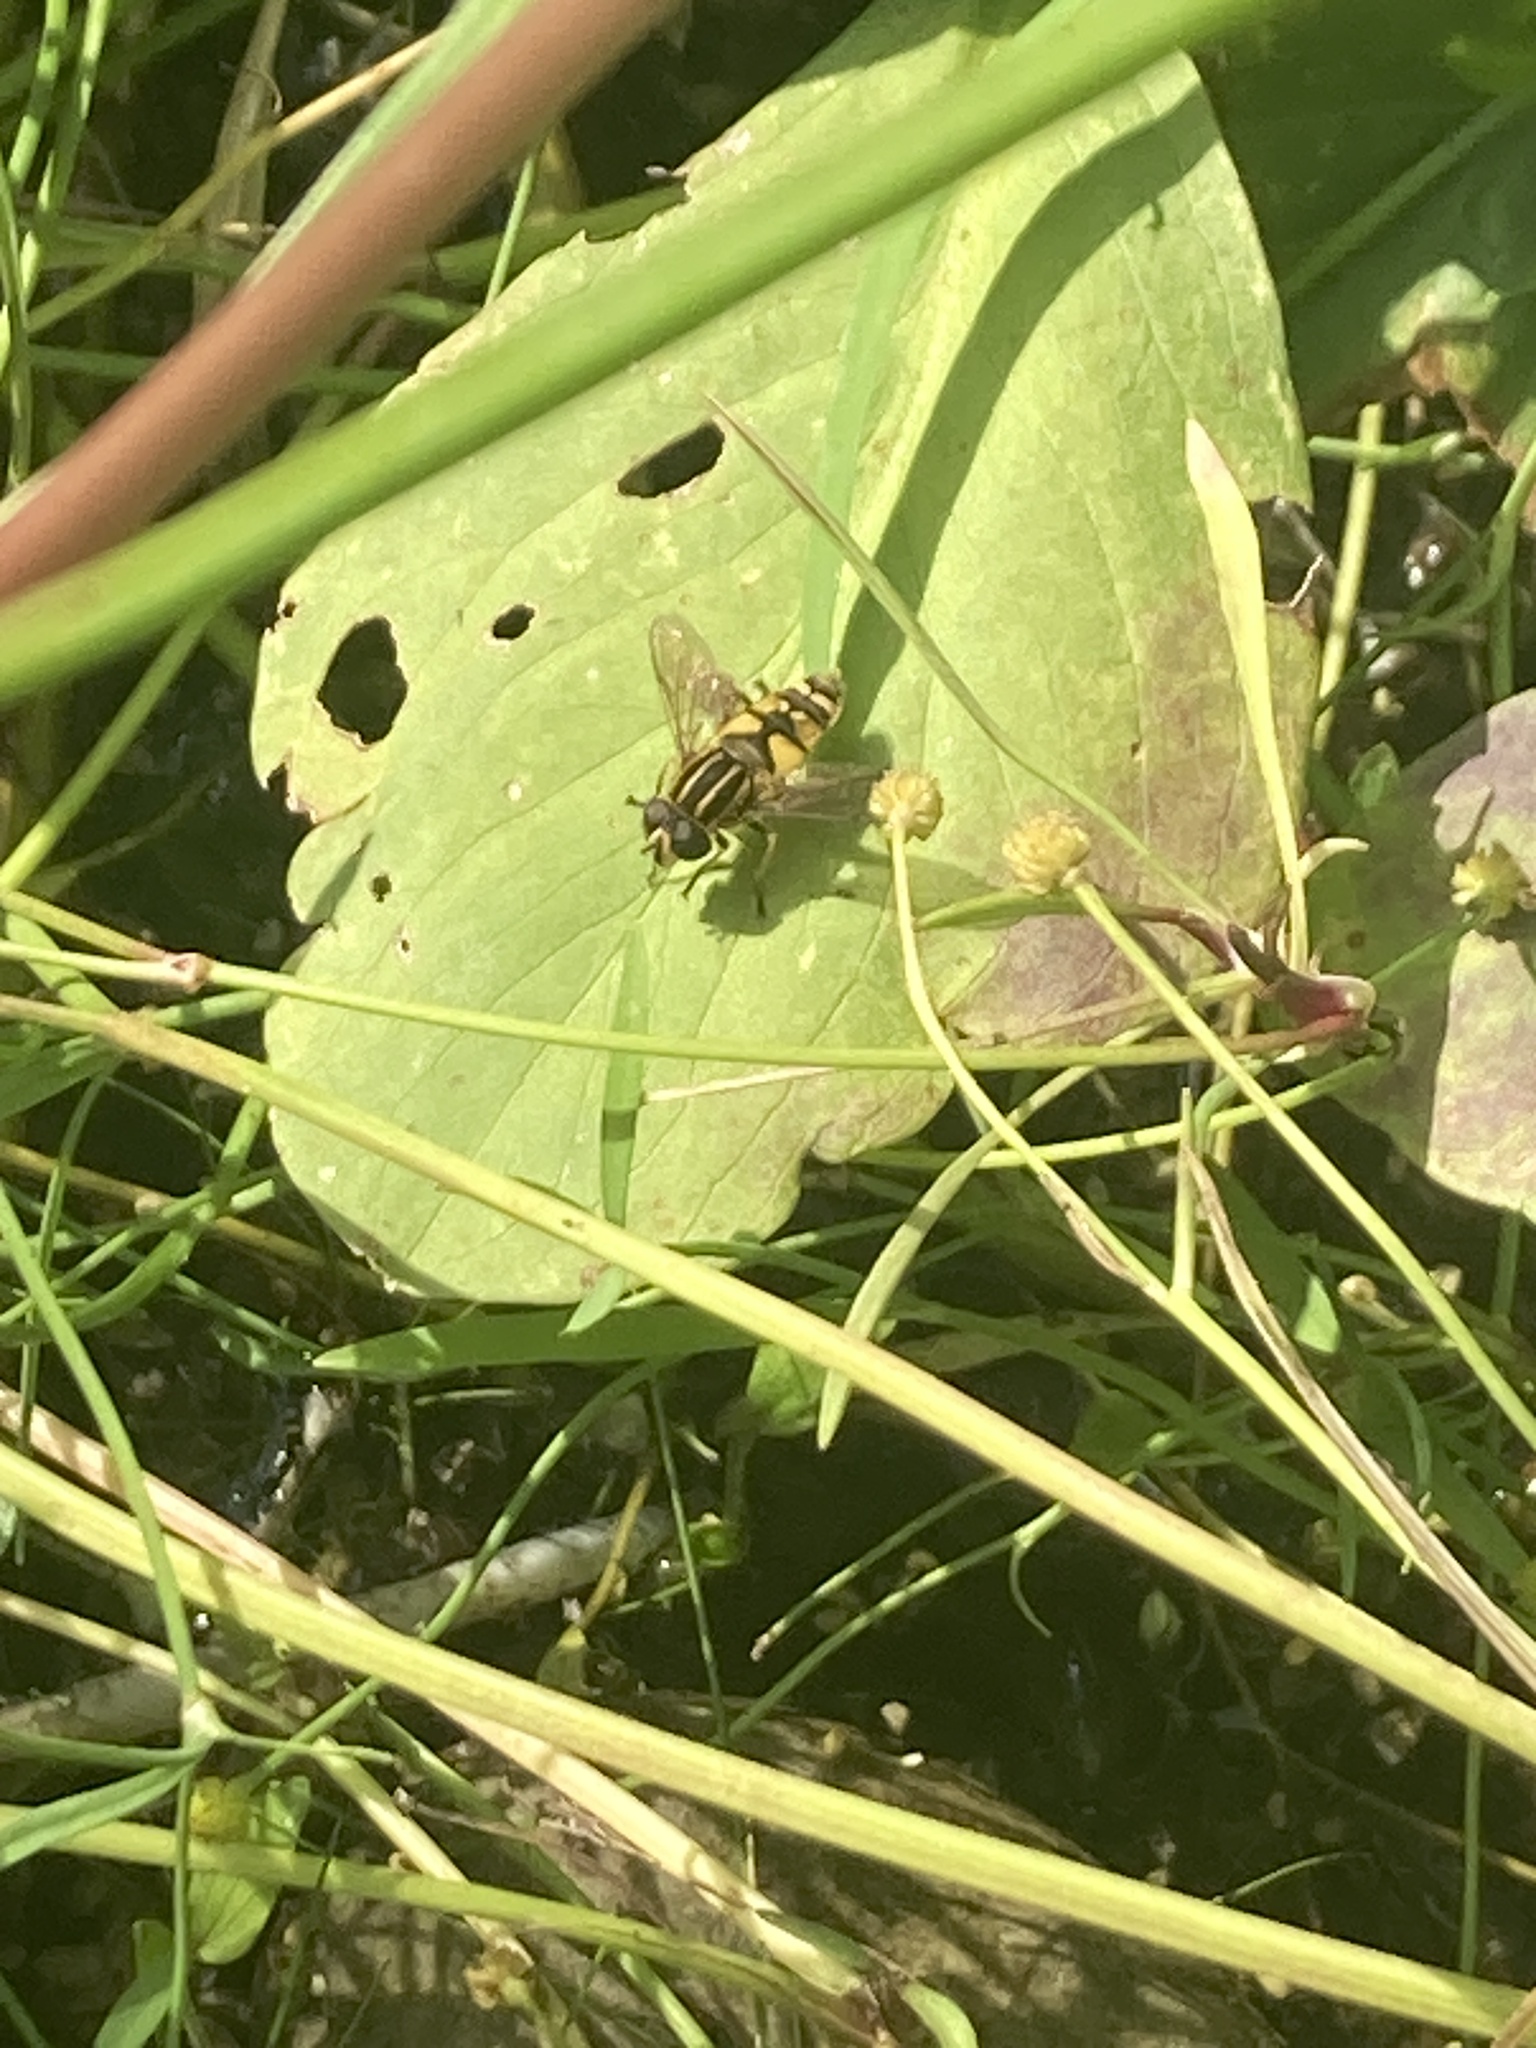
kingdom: Animalia
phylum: Arthropoda
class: Insecta
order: Diptera
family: Syrphidae
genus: Helophilus
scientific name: Helophilus pendulus
